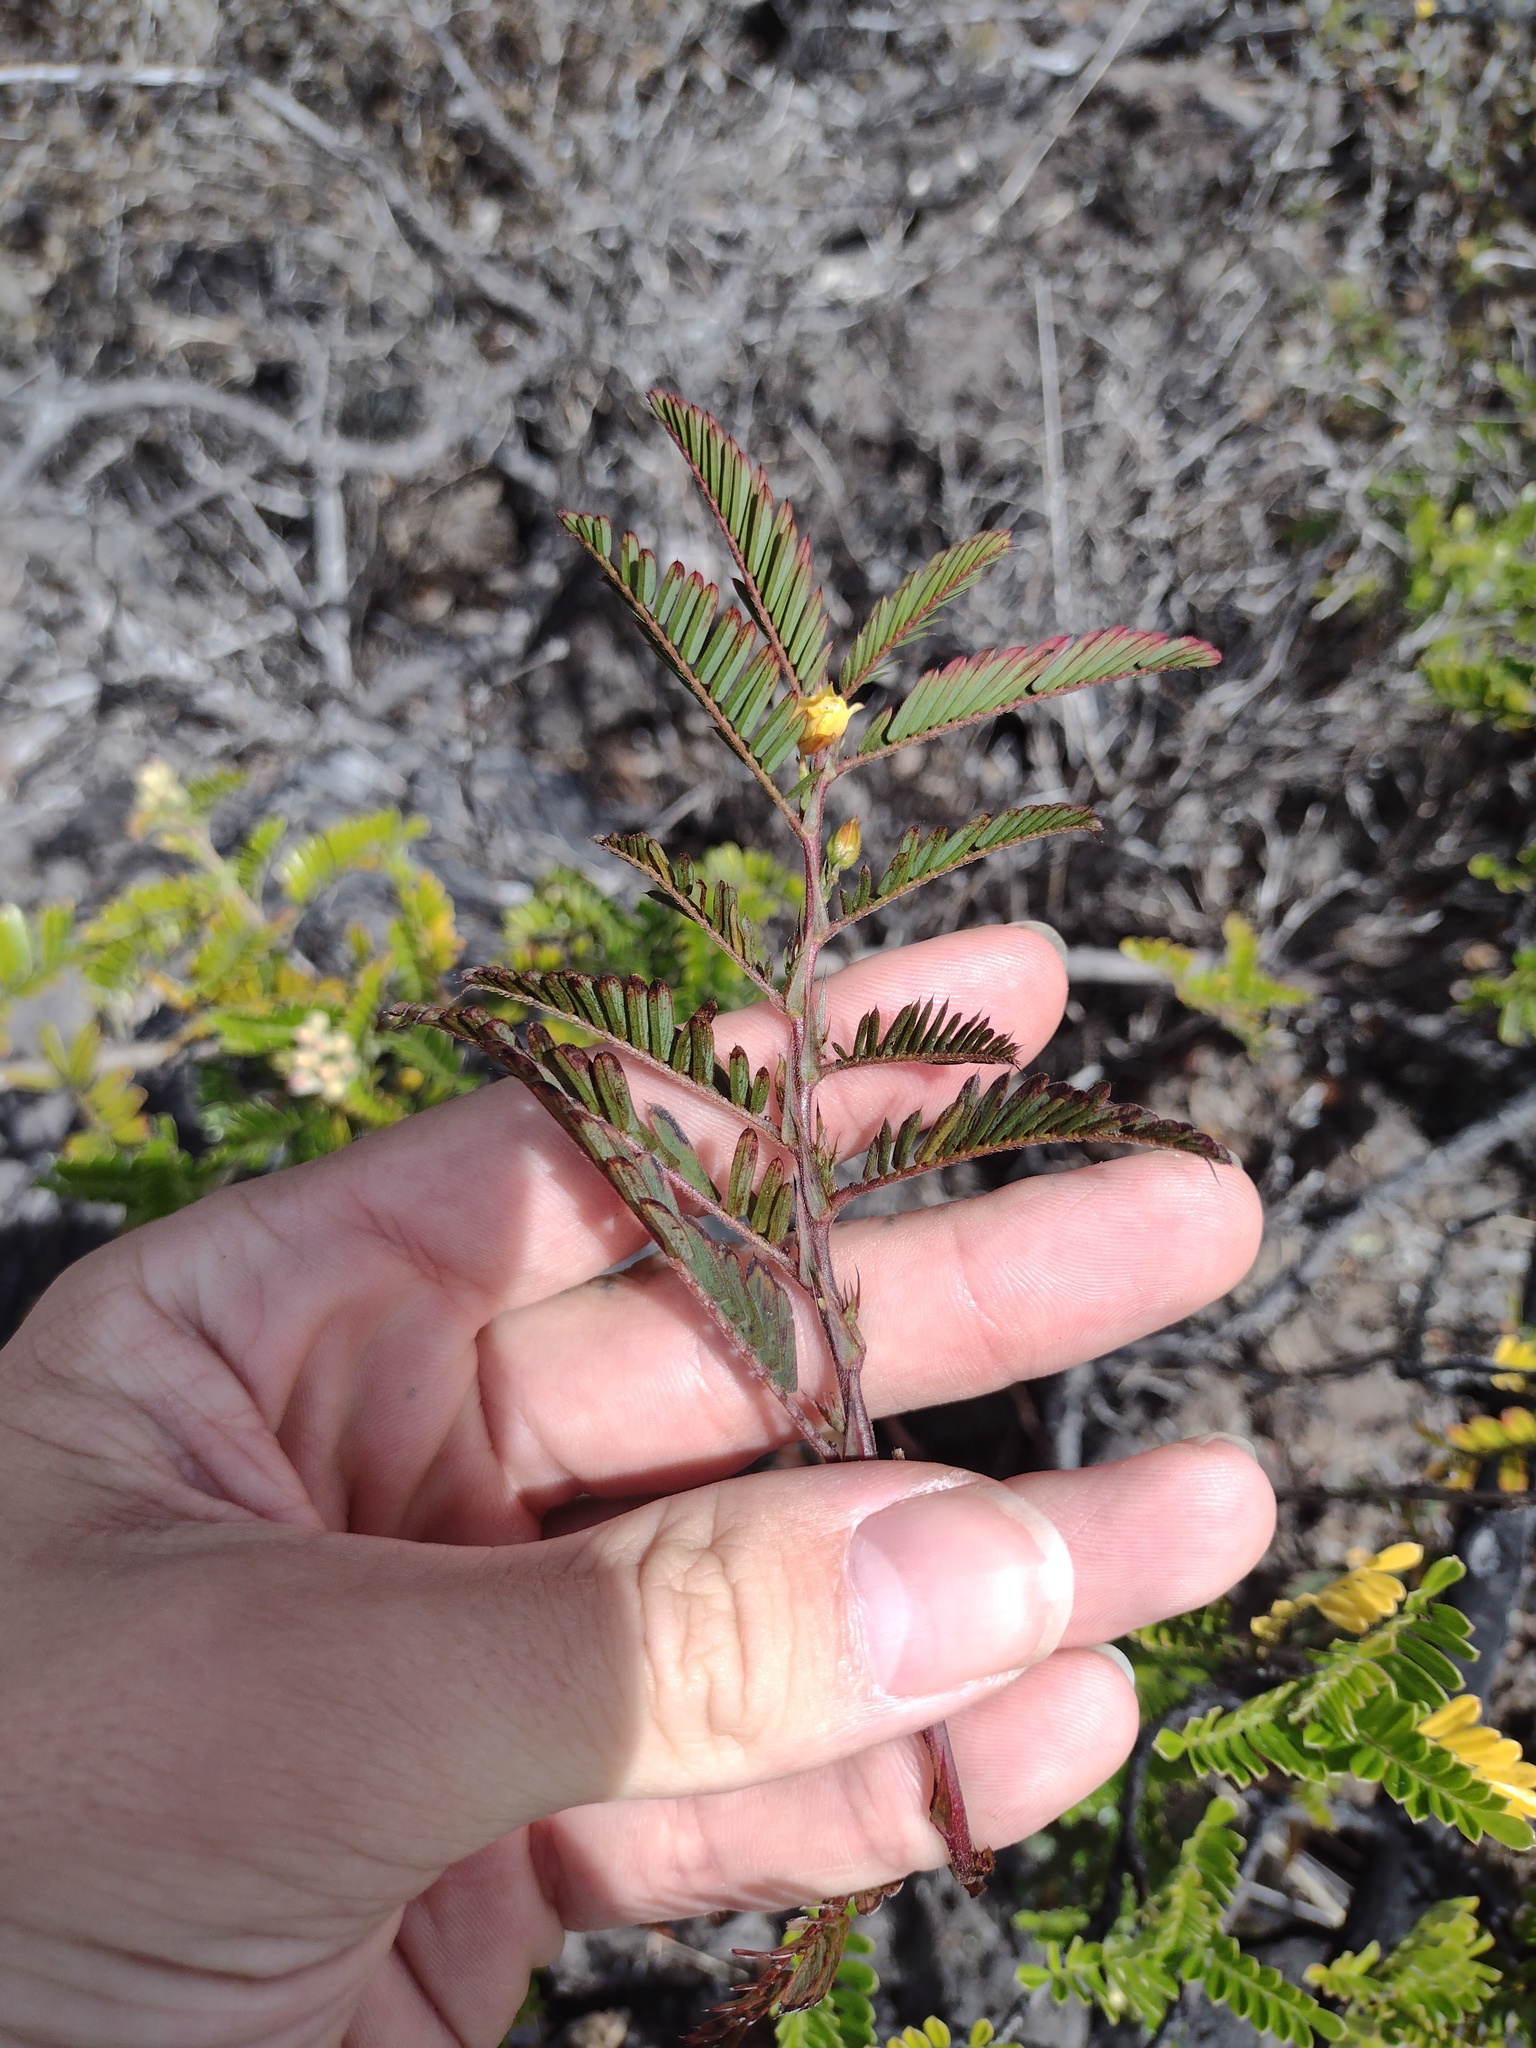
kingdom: Plantae
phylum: Tracheophyta
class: Magnoliopsida
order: Fabales
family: Fabaceae
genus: Chamaecrista
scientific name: Chamaecrista nictitans
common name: Sensitive cassia
